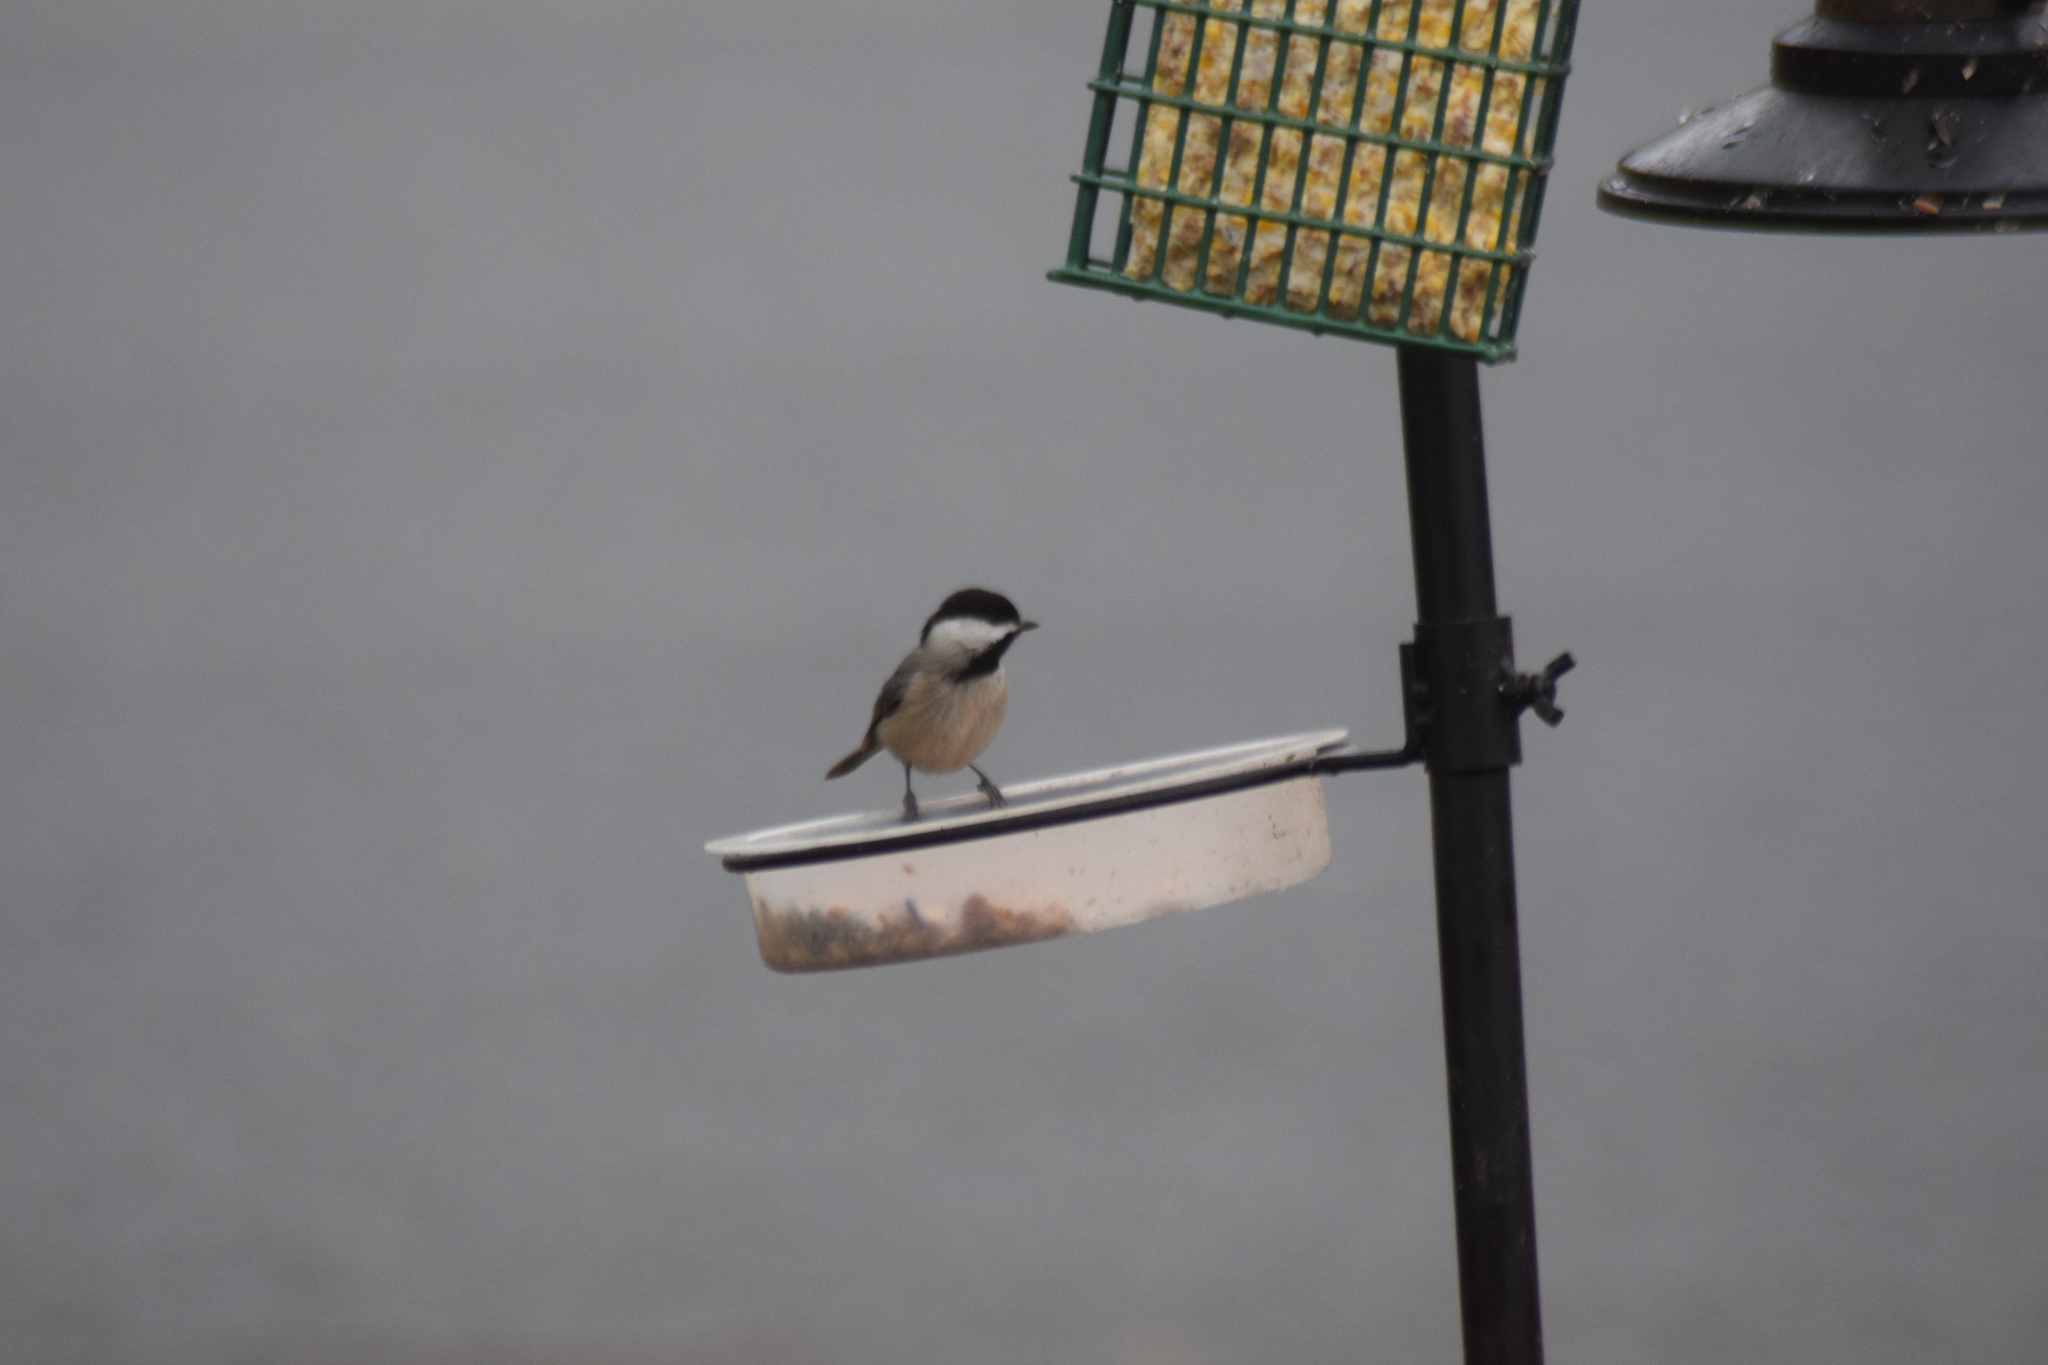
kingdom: Animalia
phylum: Chordata
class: Aves
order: Passeriformes
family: Paridae
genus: Poecile
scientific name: Poecile carolinensis
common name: Carolina chickadee
